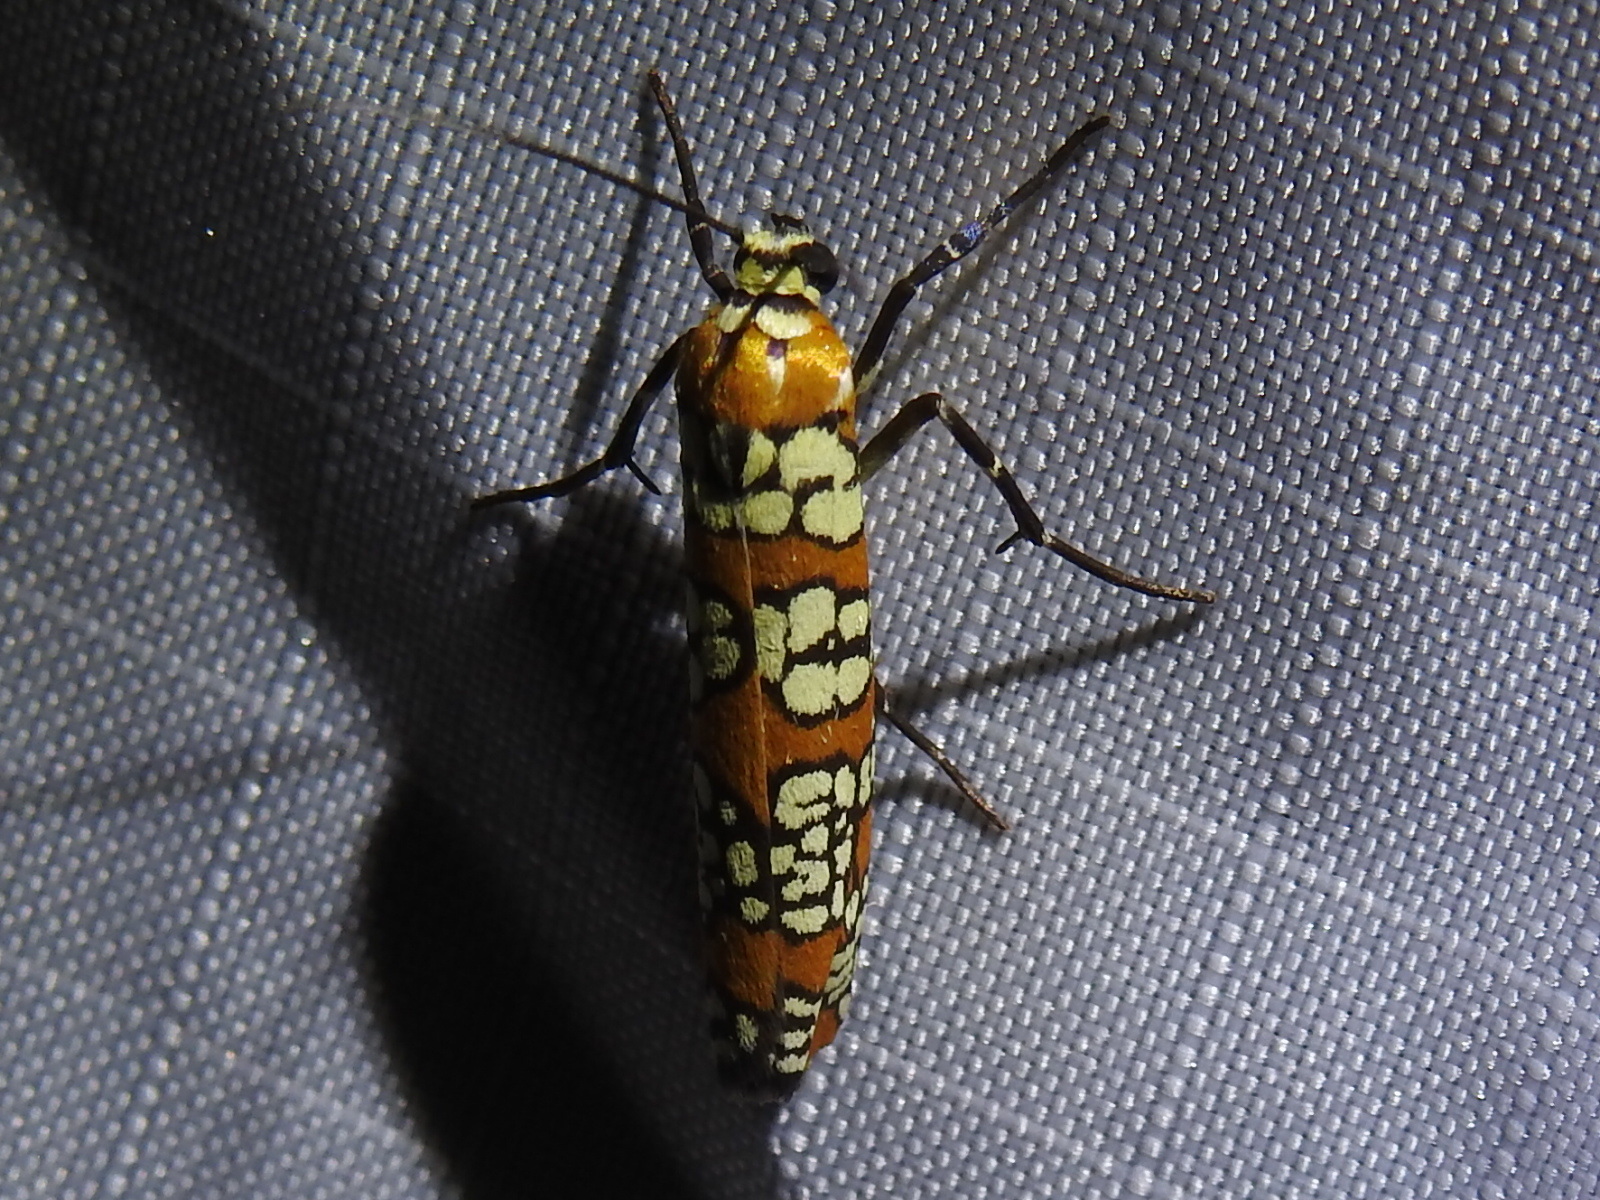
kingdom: Animalia
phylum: Arthropoda
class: Insecta
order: Lepidoptera
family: Attevidae
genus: Atteva
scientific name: Atteva punctella
